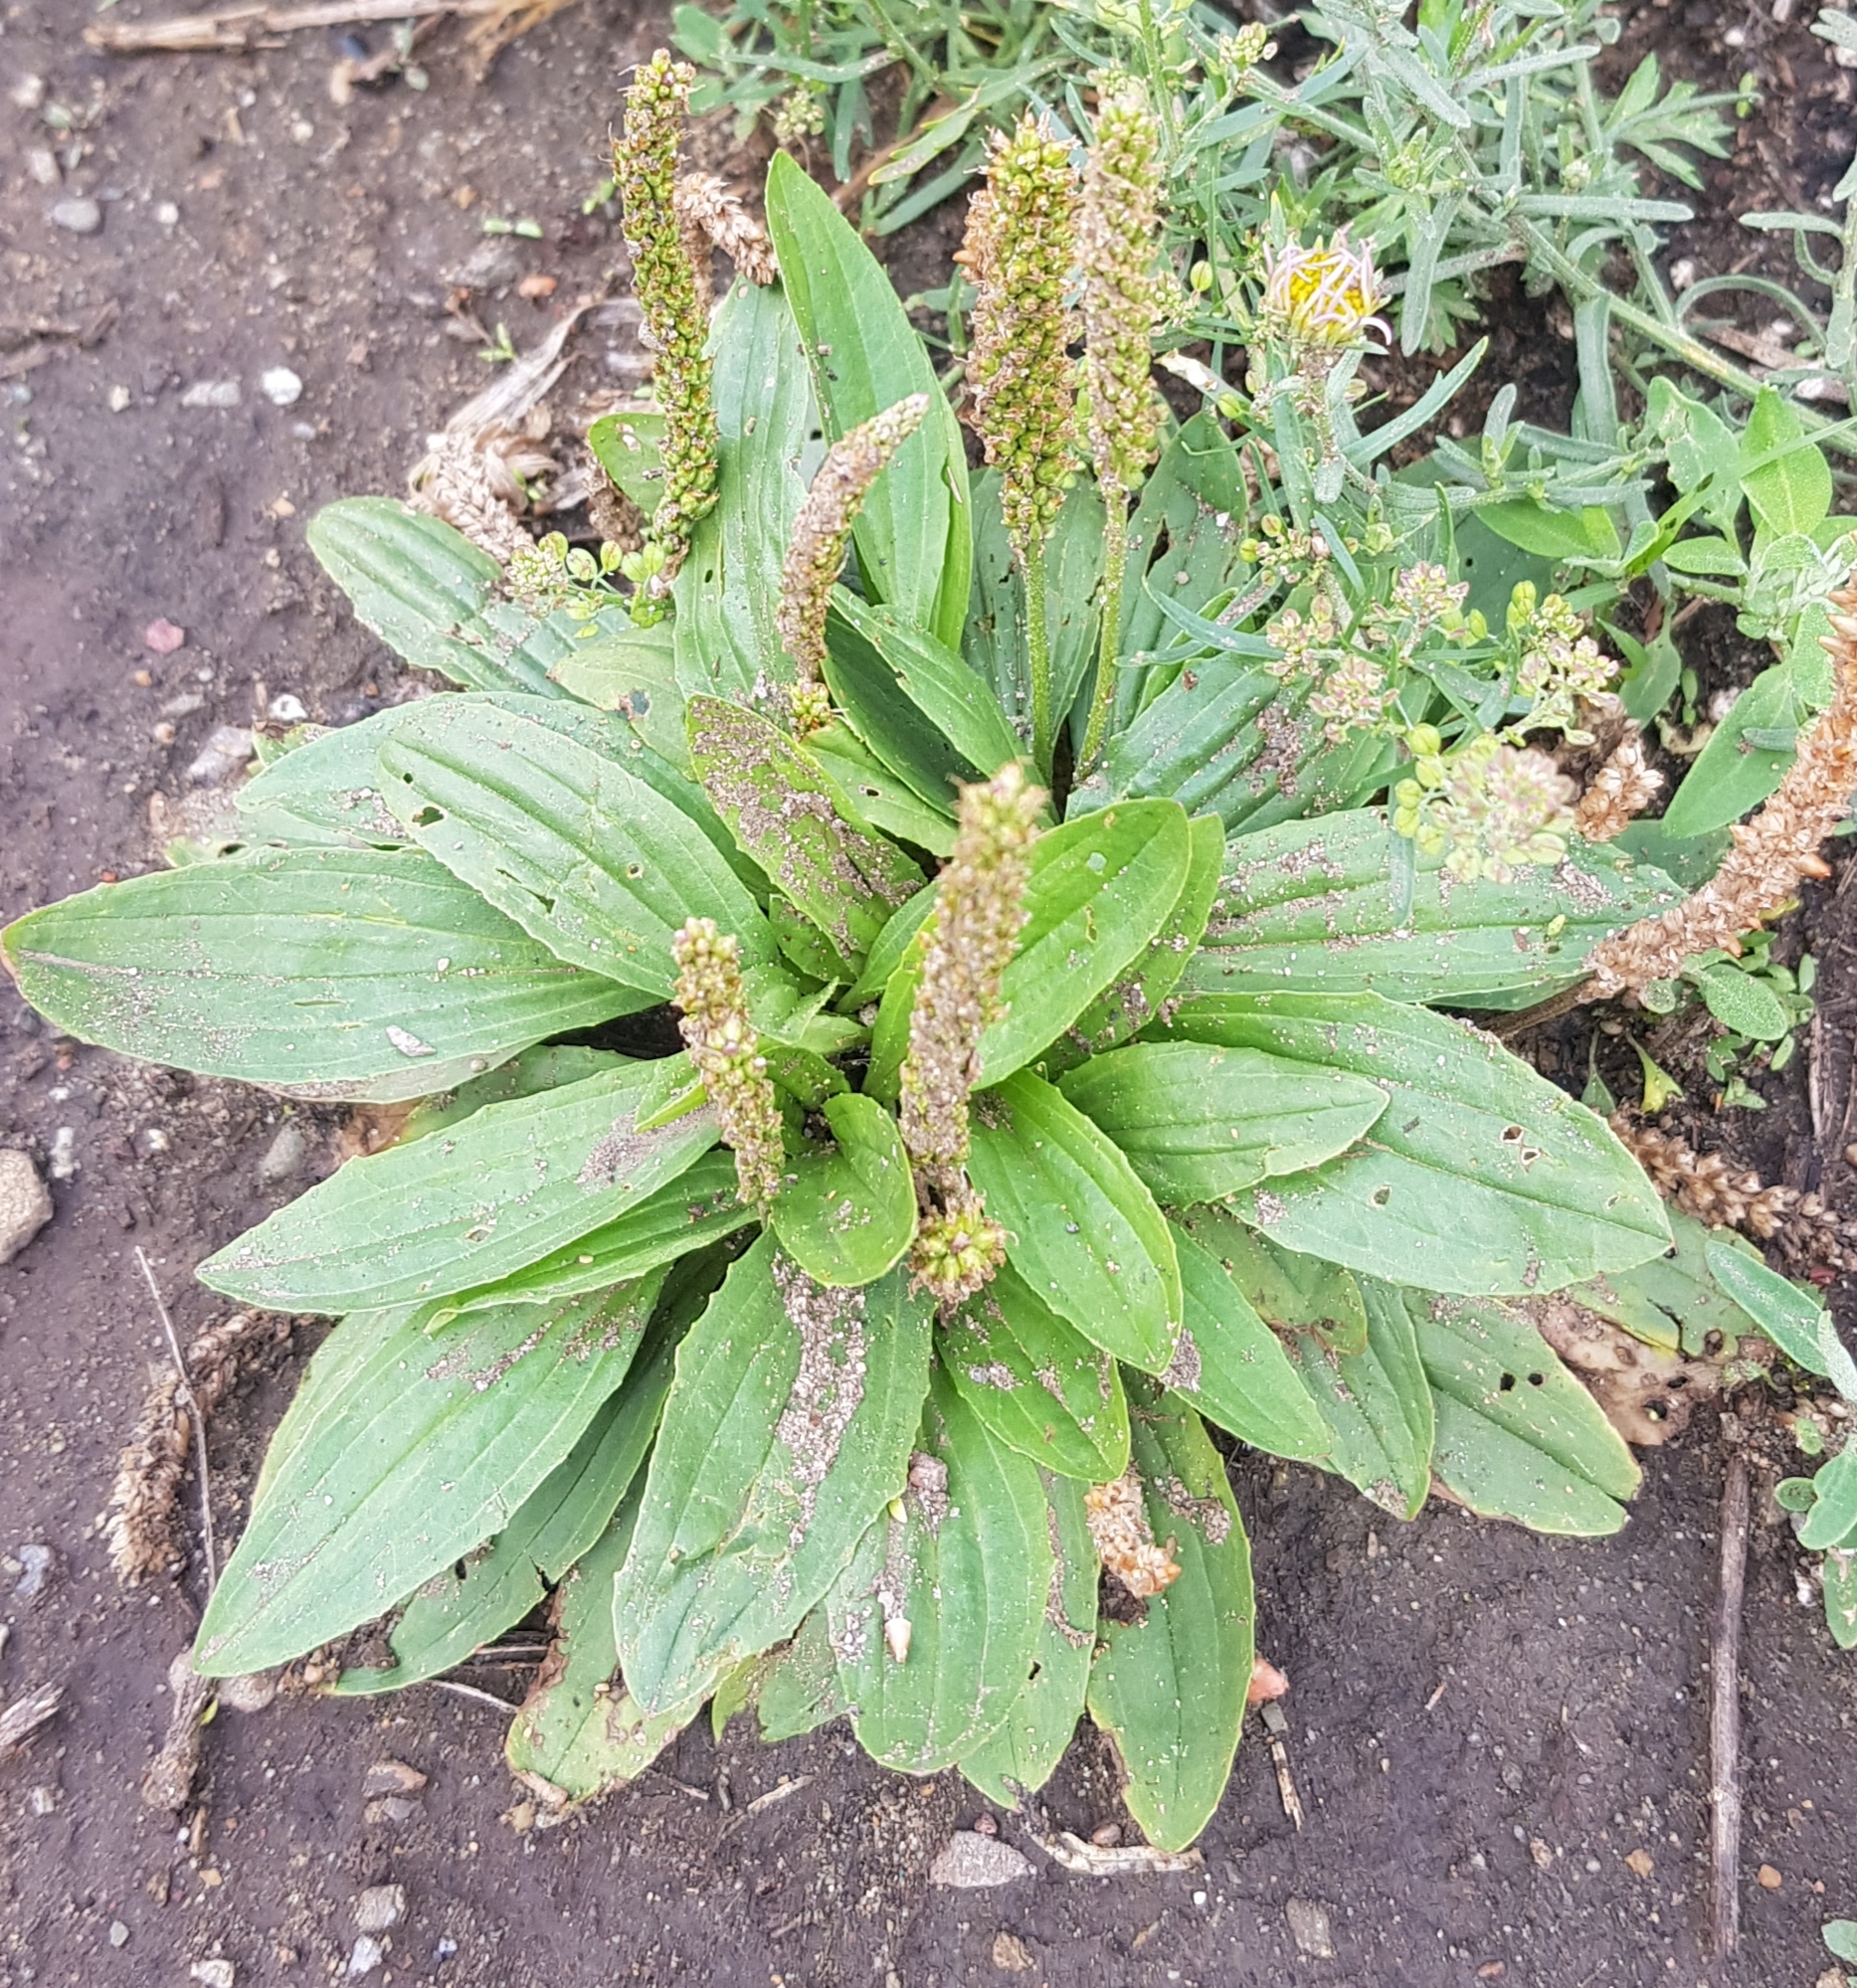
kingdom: Plantae
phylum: Tracheophyta
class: Magnoliopsida
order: Lamiales
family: Plantaginaceae
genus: Plantago
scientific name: Plantago depressa
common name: Depressed plantain
